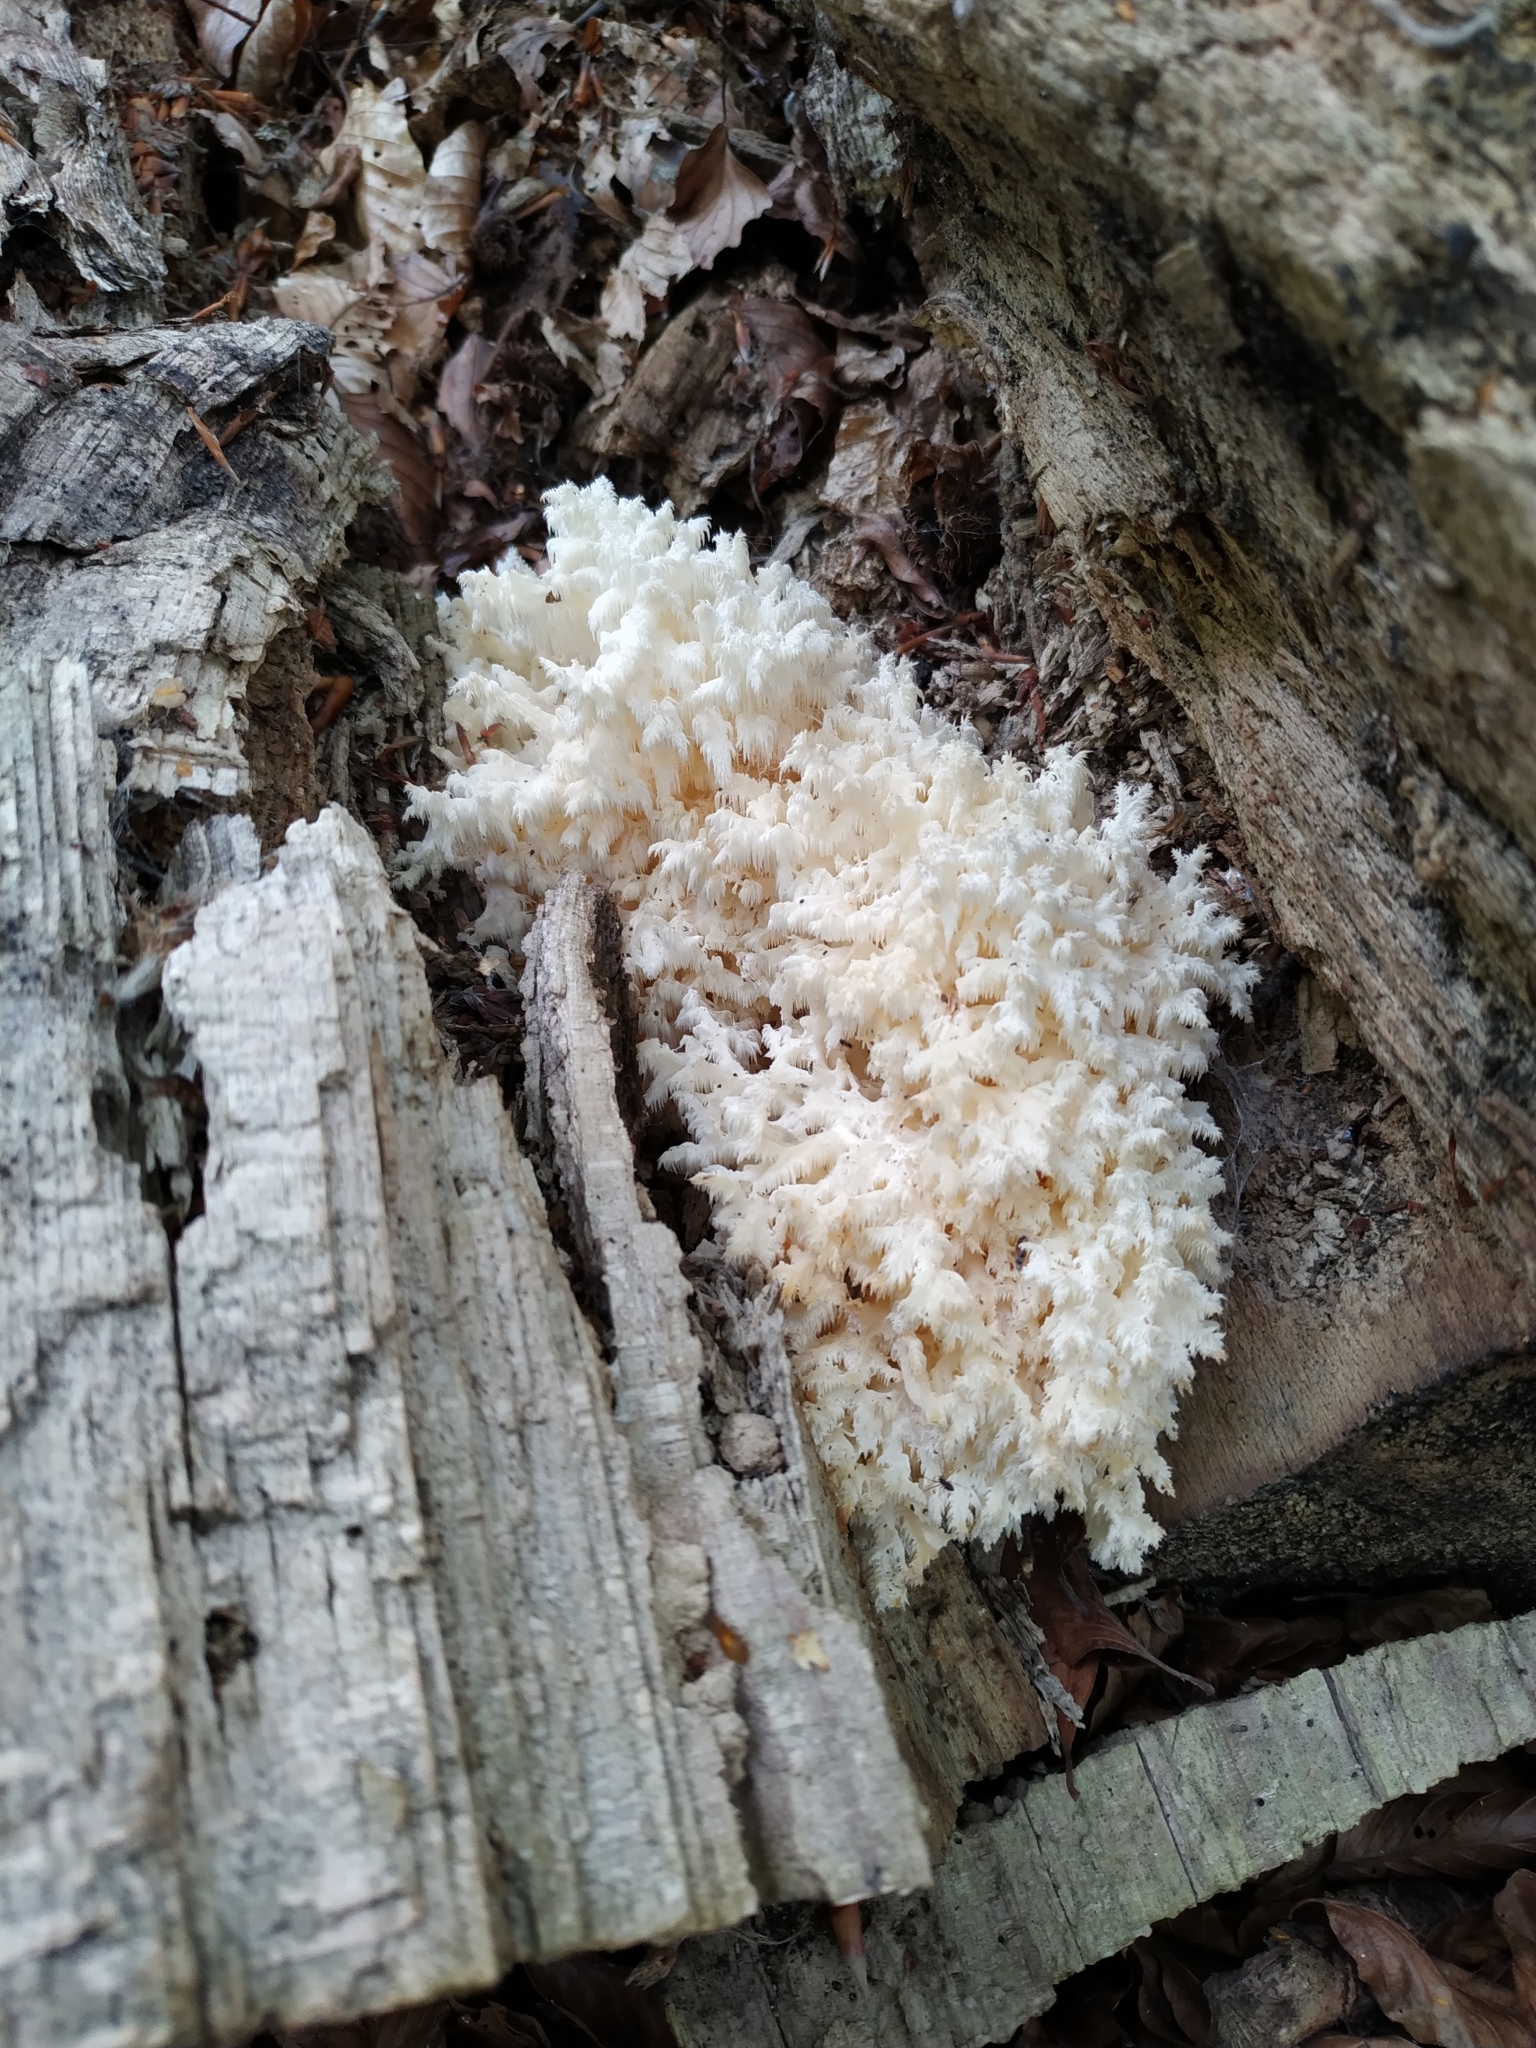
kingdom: Fungi
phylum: Basidiomycota
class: Agaricomycetes
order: Russulales
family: Hericiaceae
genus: Hericium
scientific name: Hericium coralloides
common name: Coral tooth
